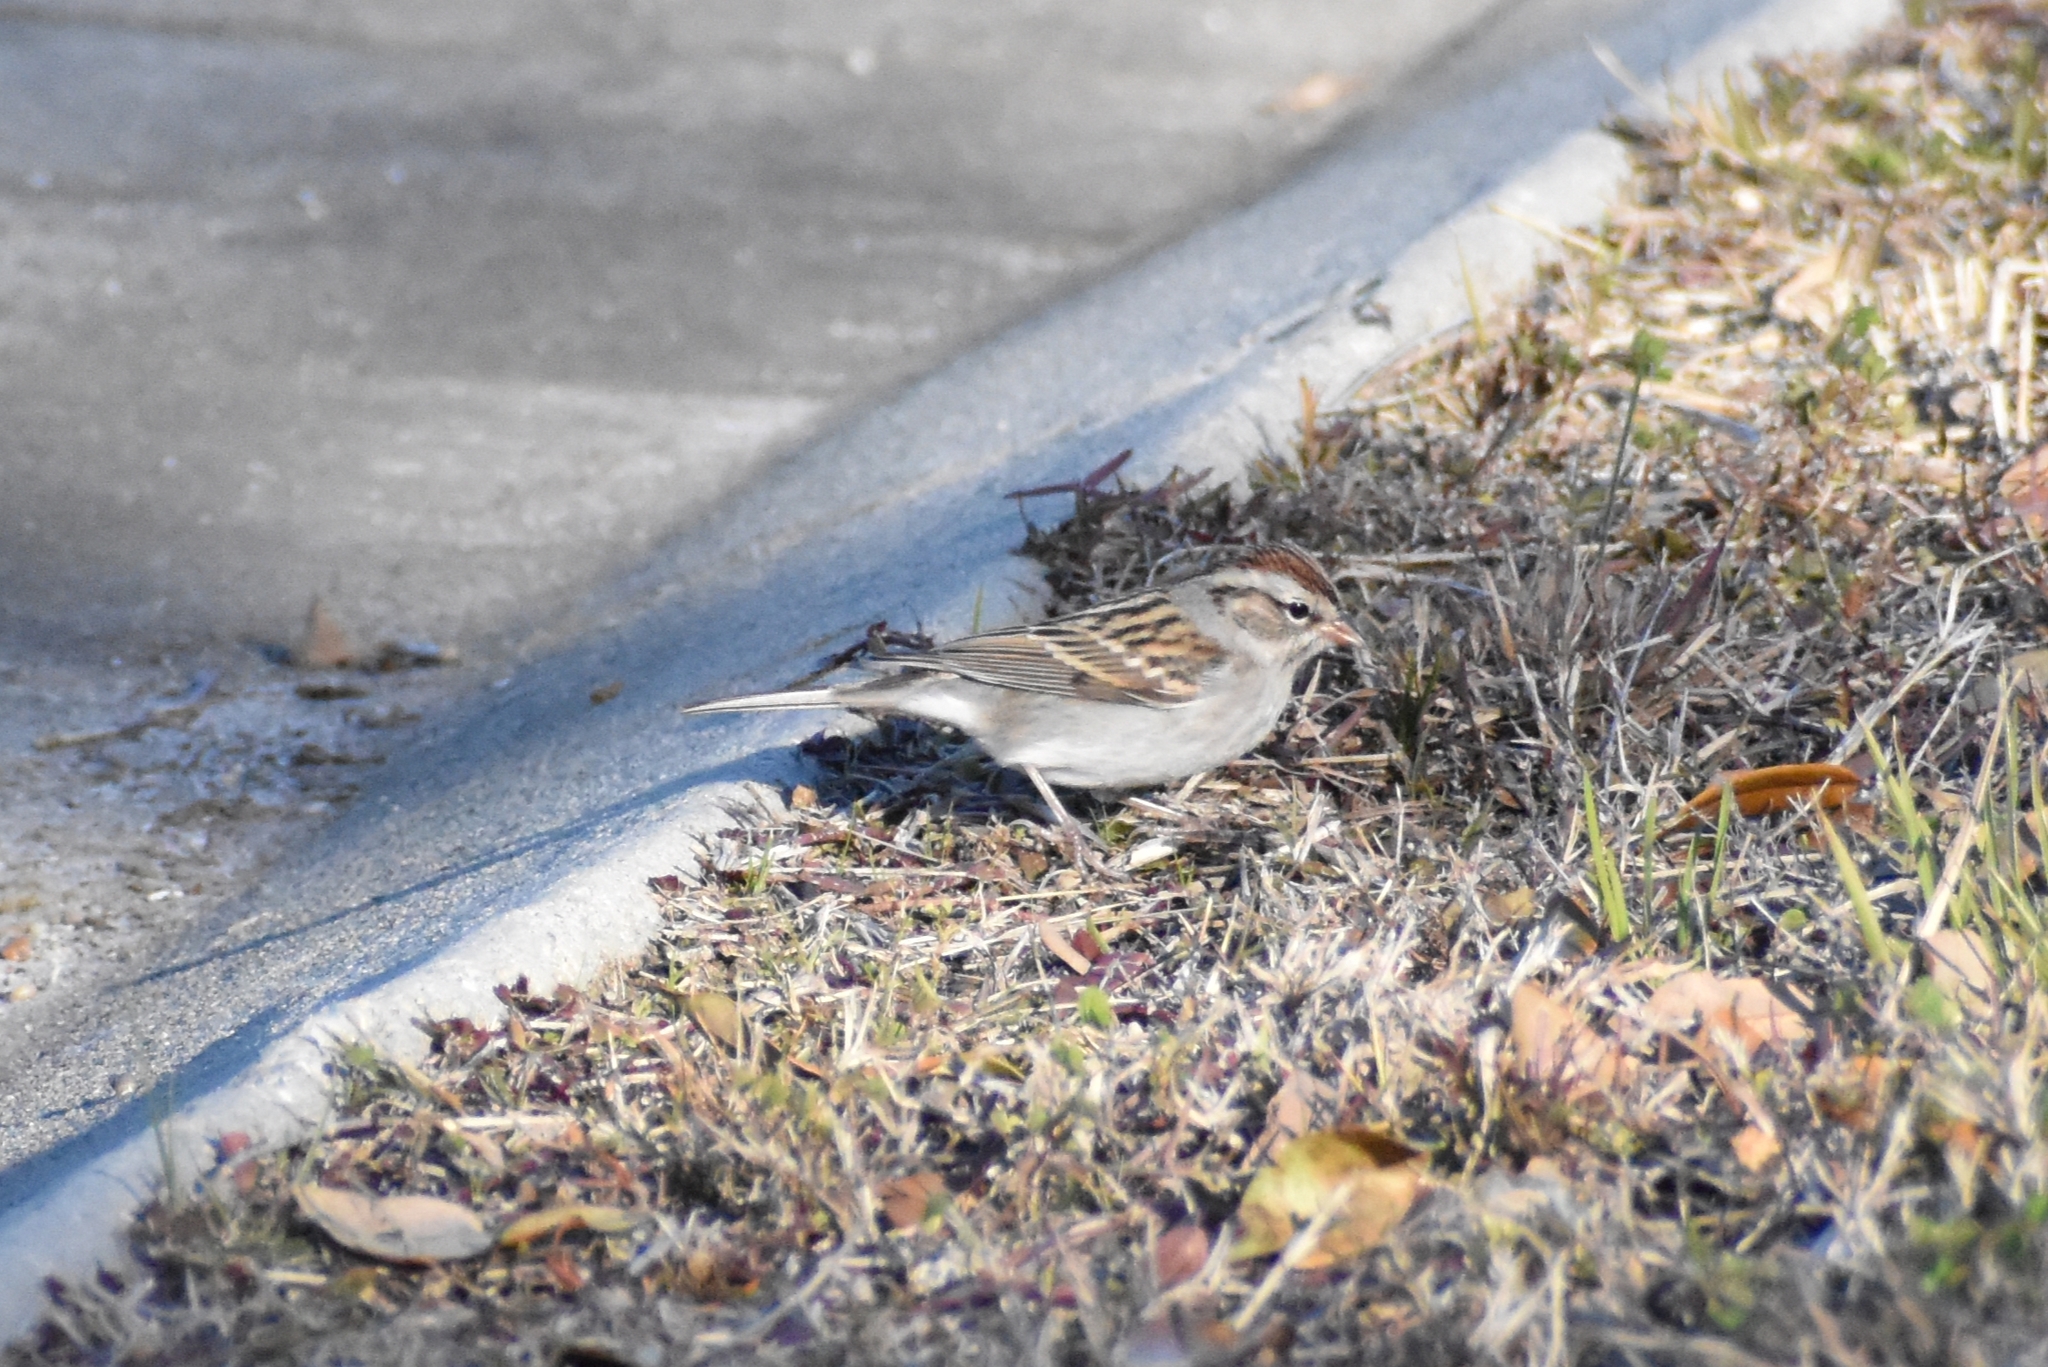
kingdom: Animalia
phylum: Chordata
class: Aves
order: Passeriformes
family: Passerellidae
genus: Spizella
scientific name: Spizella passerina
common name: Chipping sparrow
